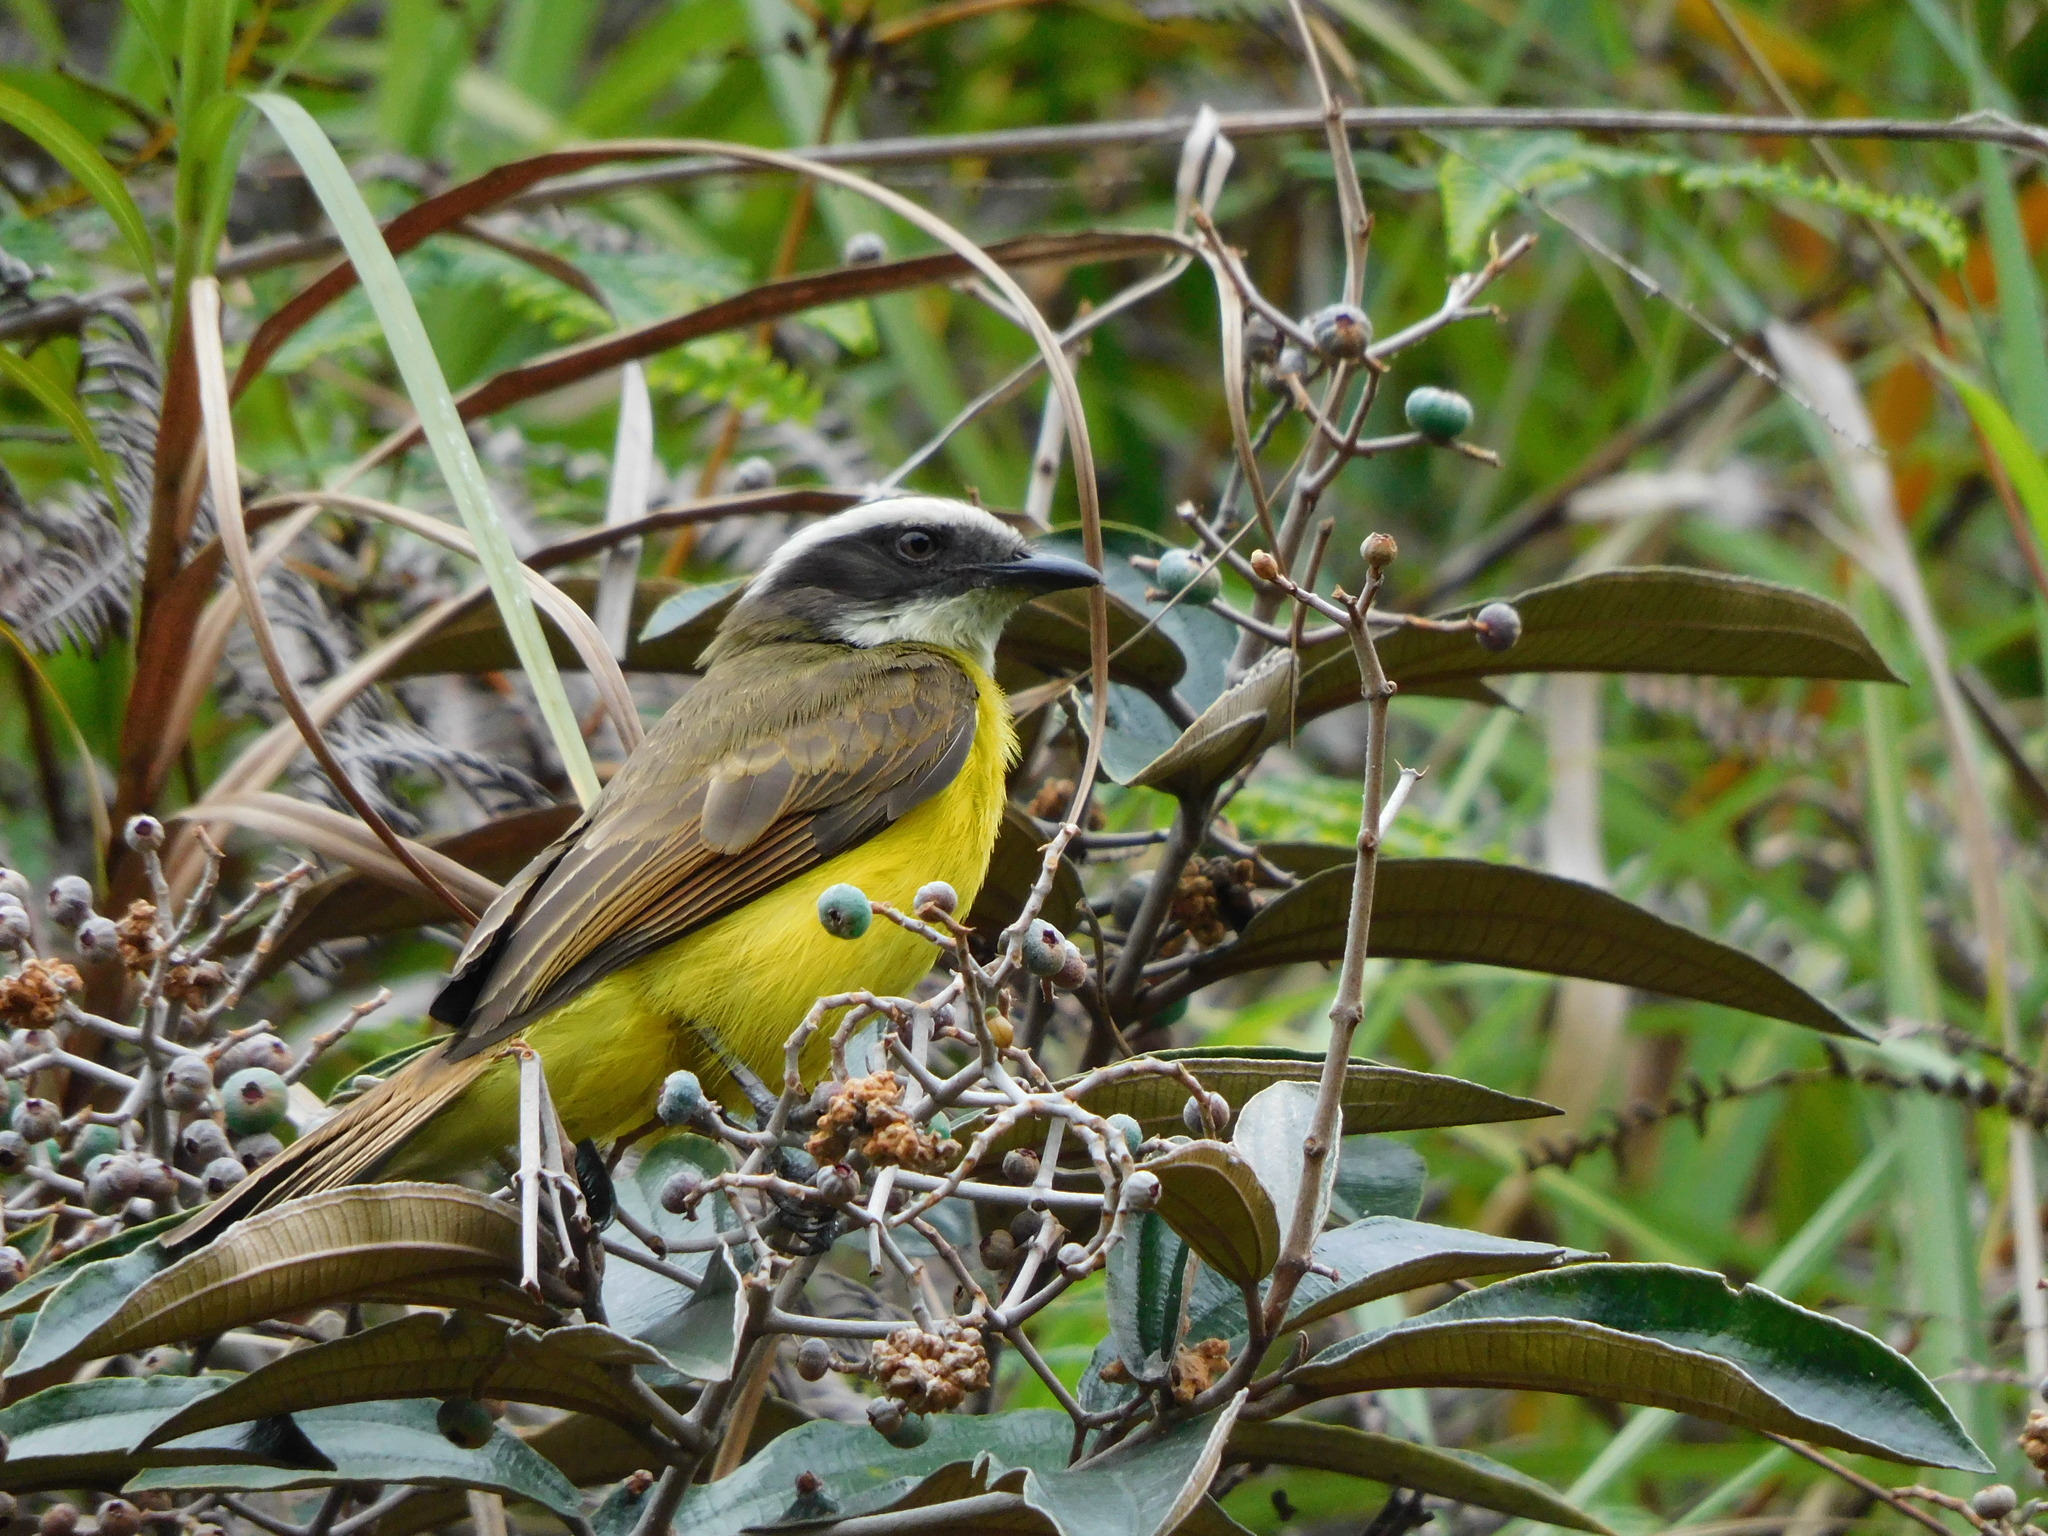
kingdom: Animalia
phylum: Chordata
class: Aves
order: Passeriformes
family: Tyrannidae
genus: Myiozetetes
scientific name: Myiozetetes cayanensis
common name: Rusty-margined flycatcher
